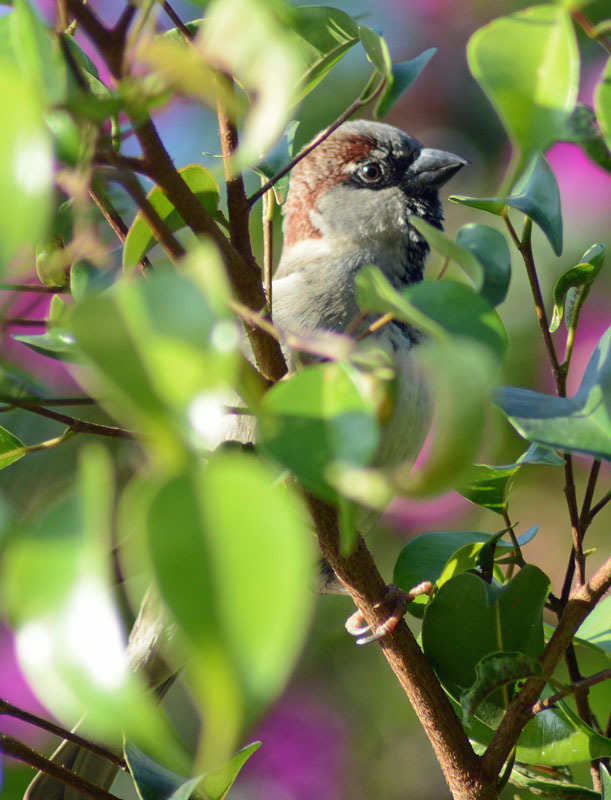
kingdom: Animalia
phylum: Chordata
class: Aves
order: Passeriformes
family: Passeridae
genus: Passer
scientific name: Passer domesticus
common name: House sparrow
